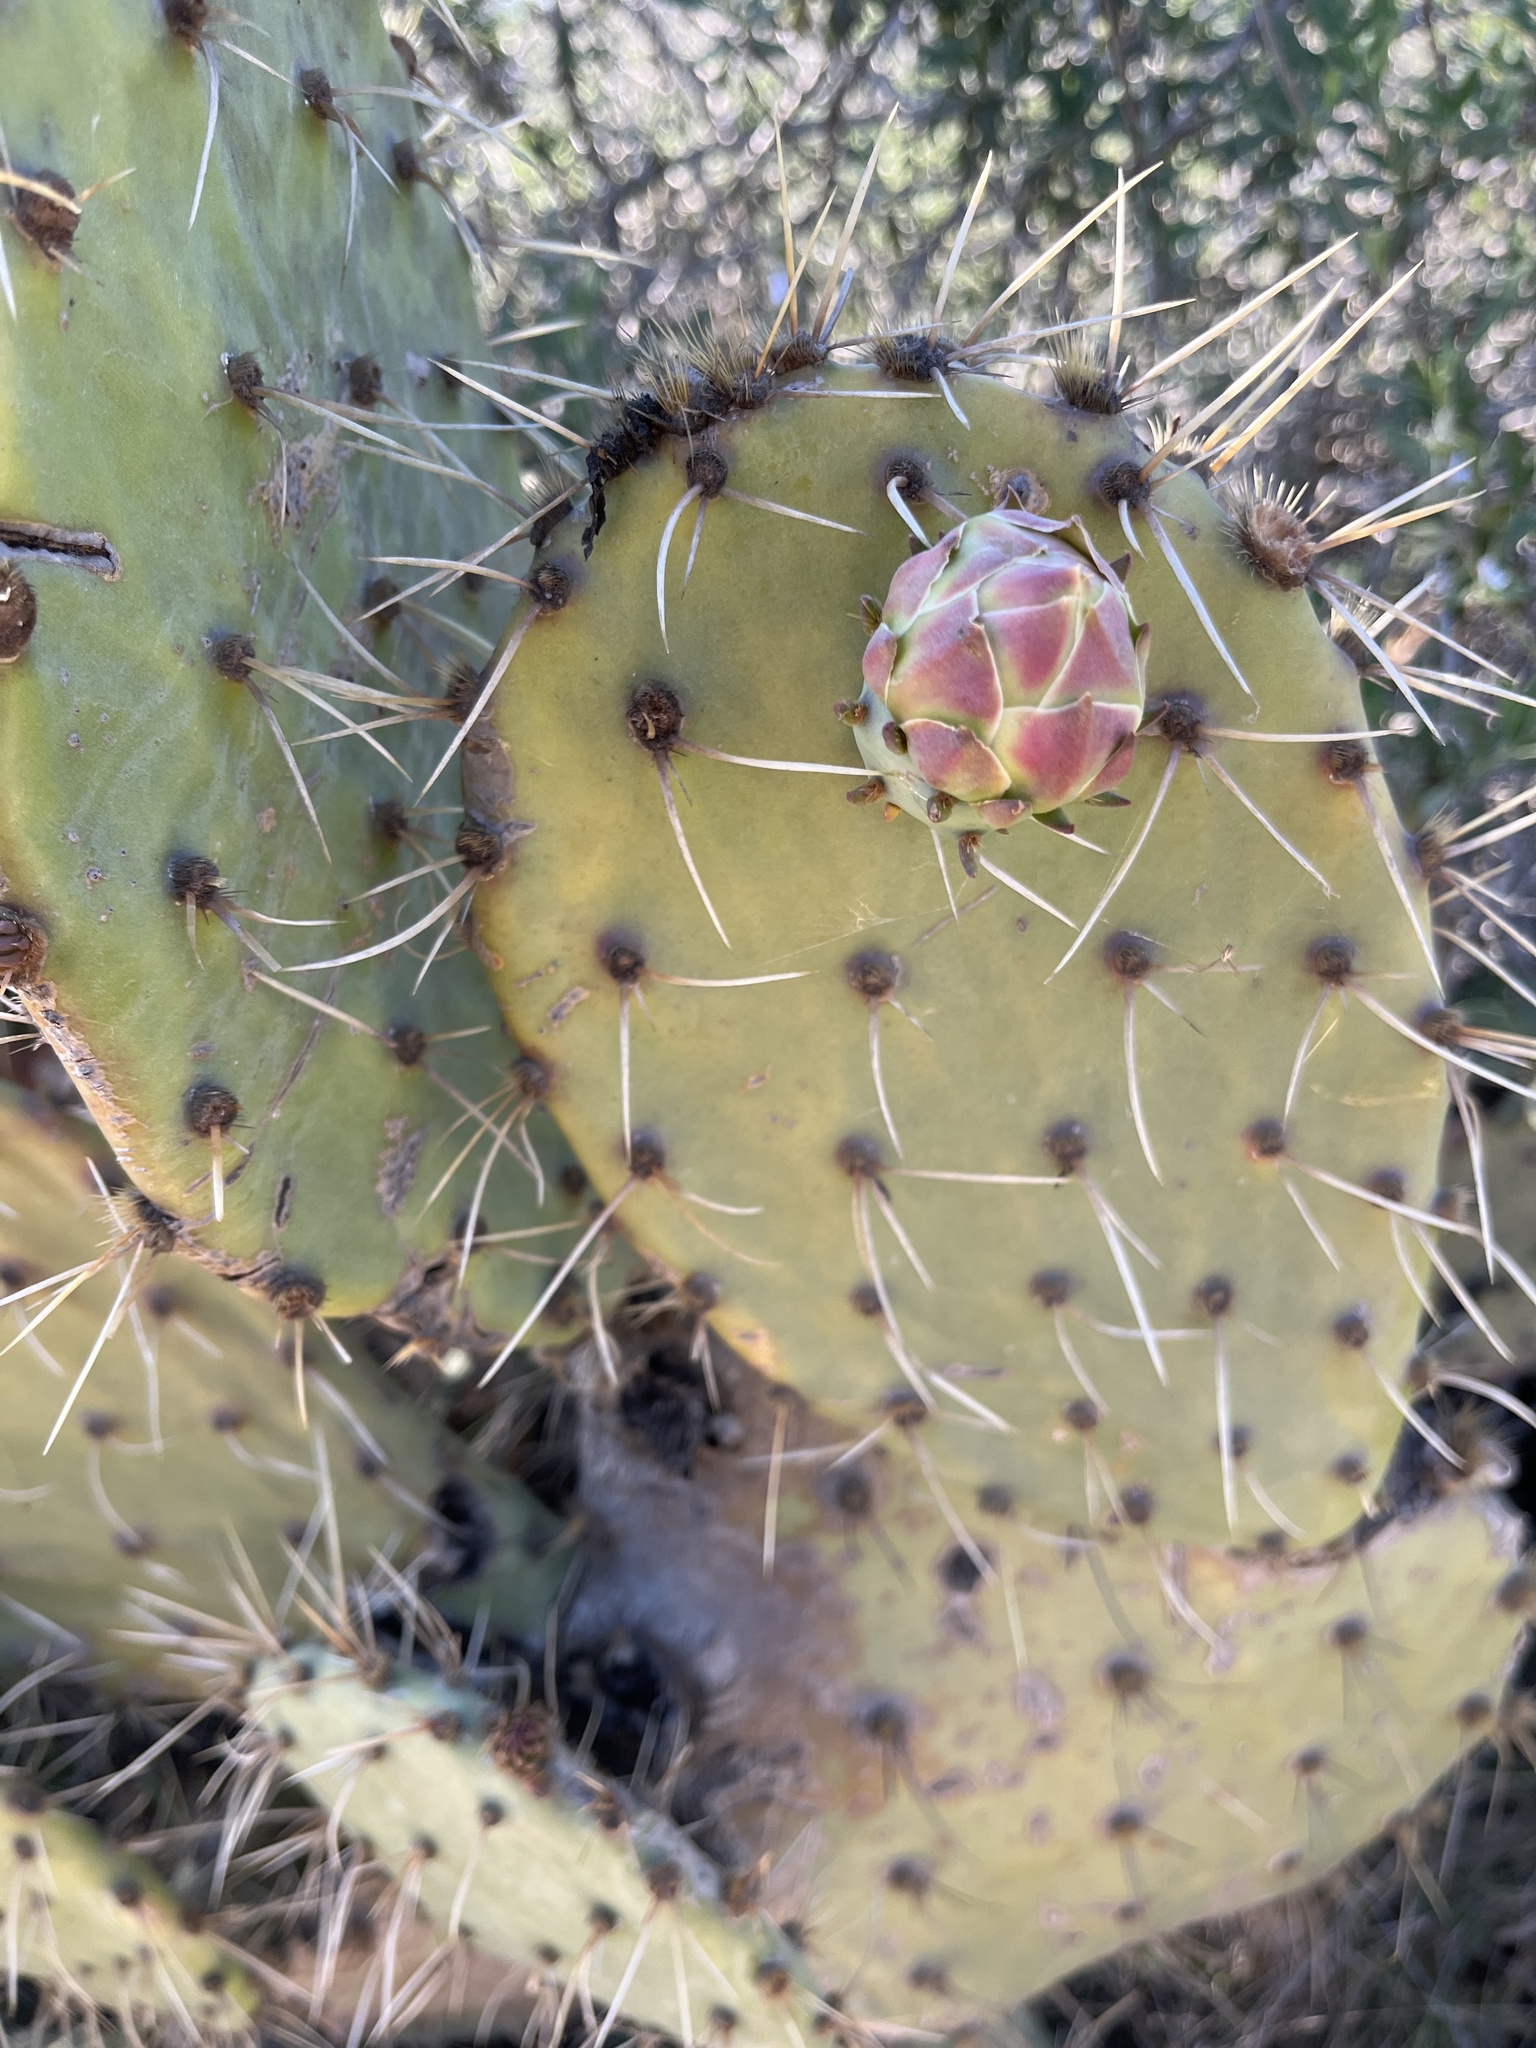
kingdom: Plantae
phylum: Tracheophyta
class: Magnoliopsida
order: Caryophyllales
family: Cactaceae
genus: Opuntia
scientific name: Opuntia demissa
